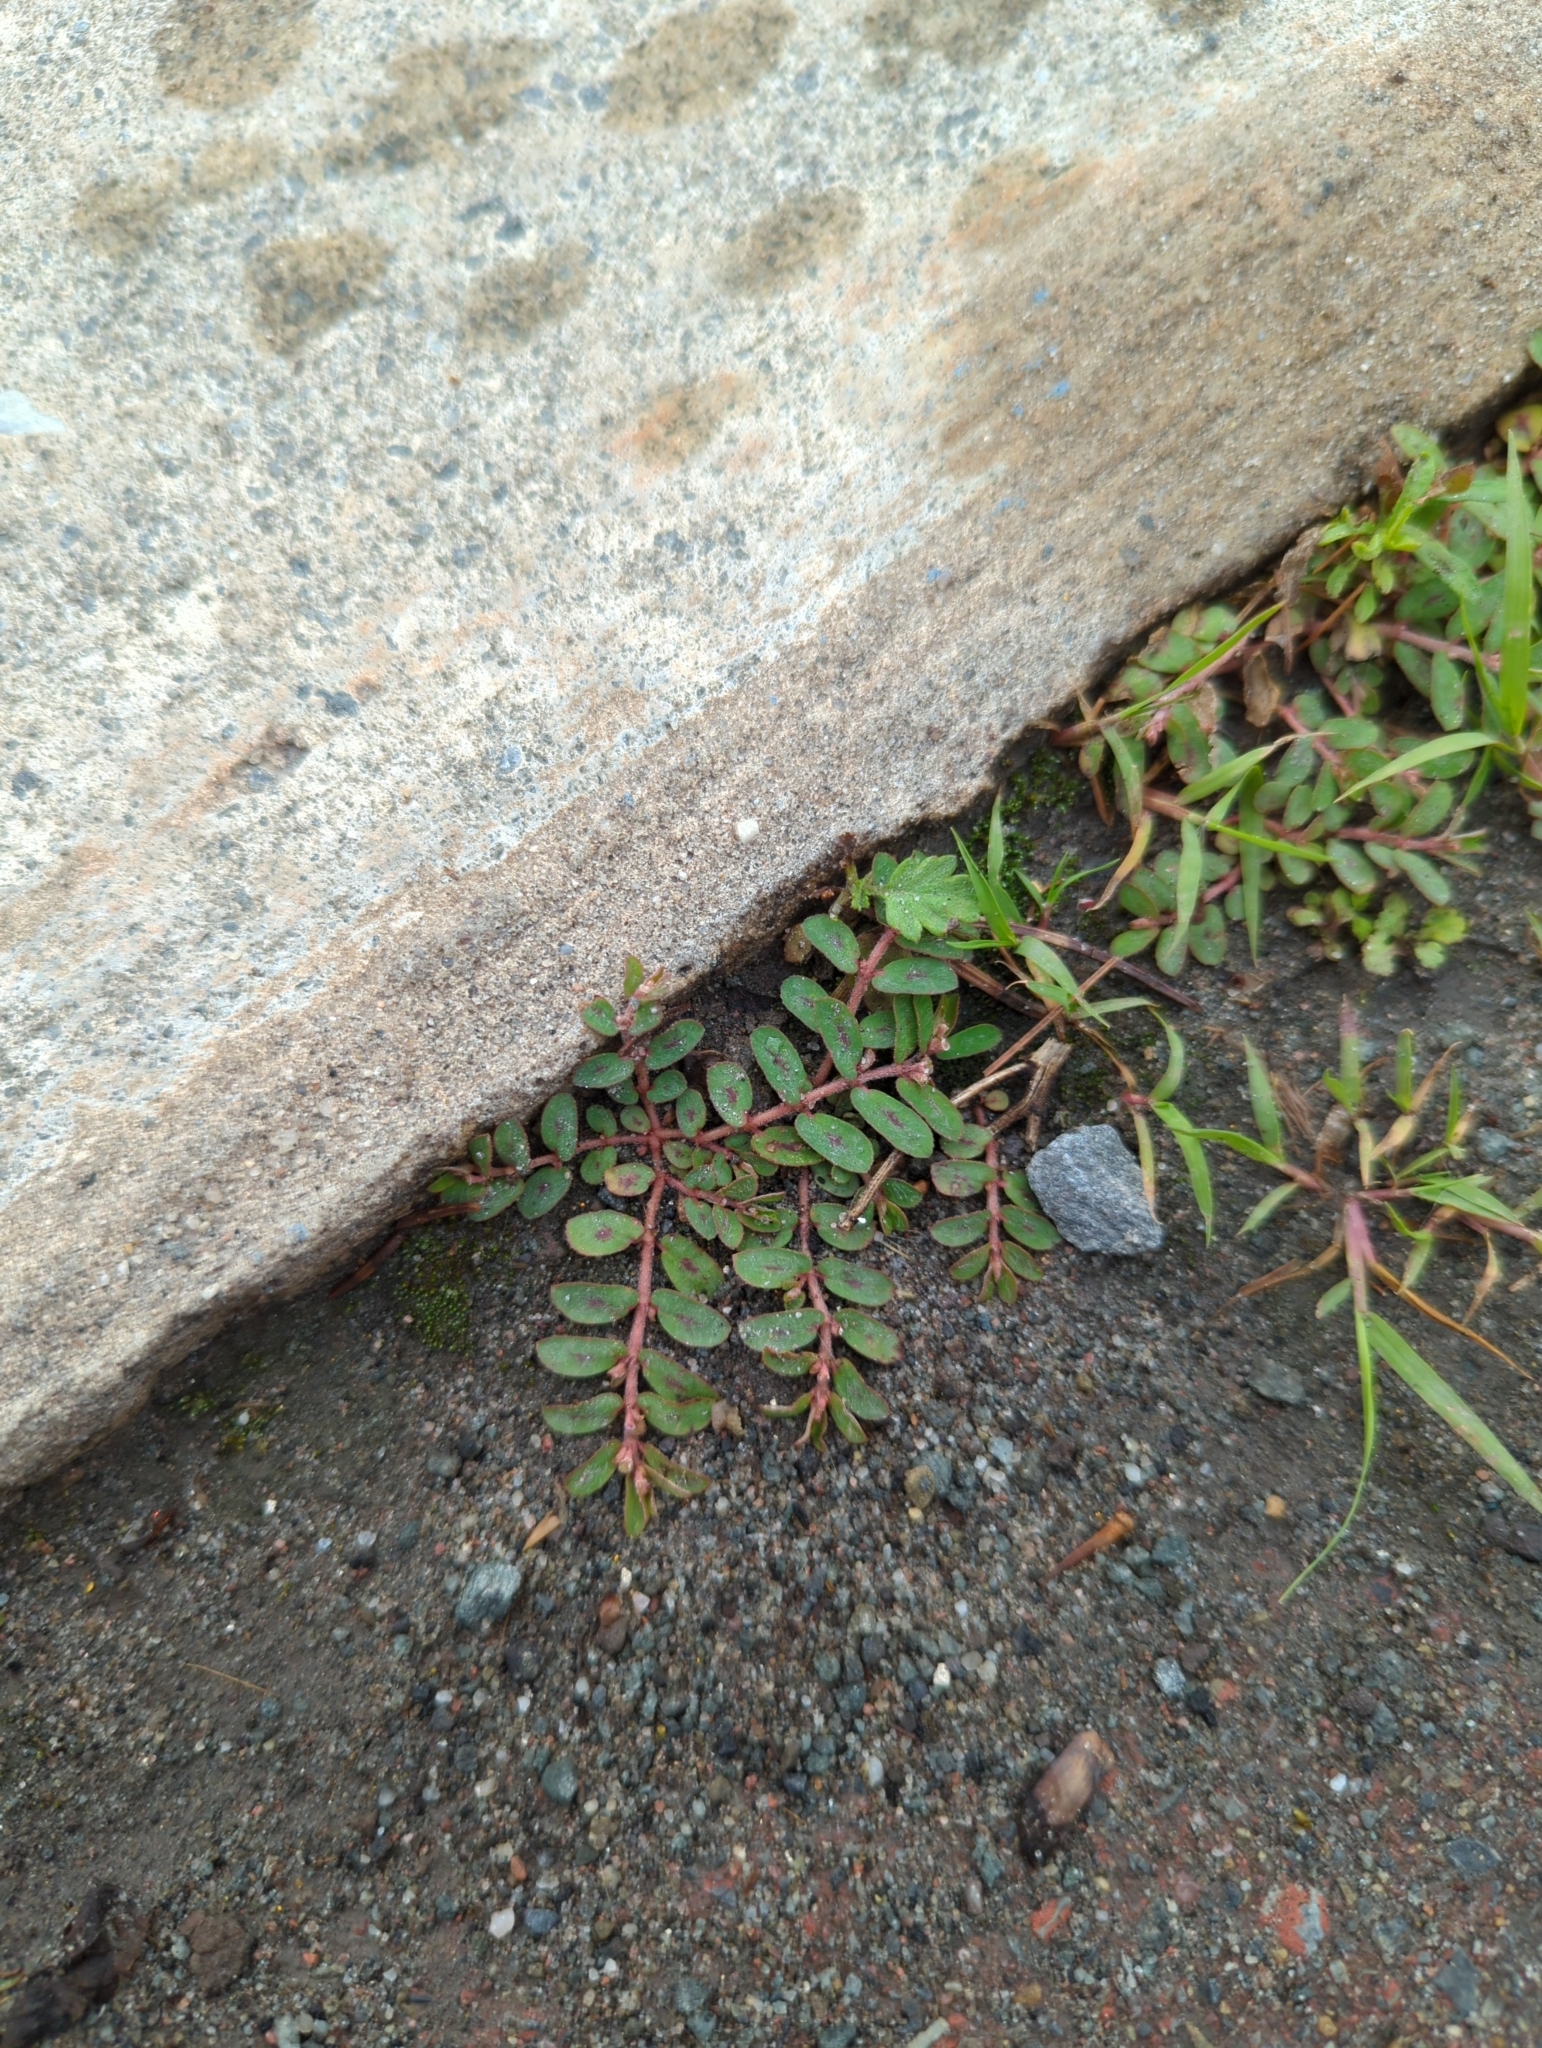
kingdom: Plantae
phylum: Tracheophyta
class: Magnoliopsida
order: Malpighiales
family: Euphorbiaceae
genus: Euphorbia
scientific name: Euphorbia maculata
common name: Spotted spurge
